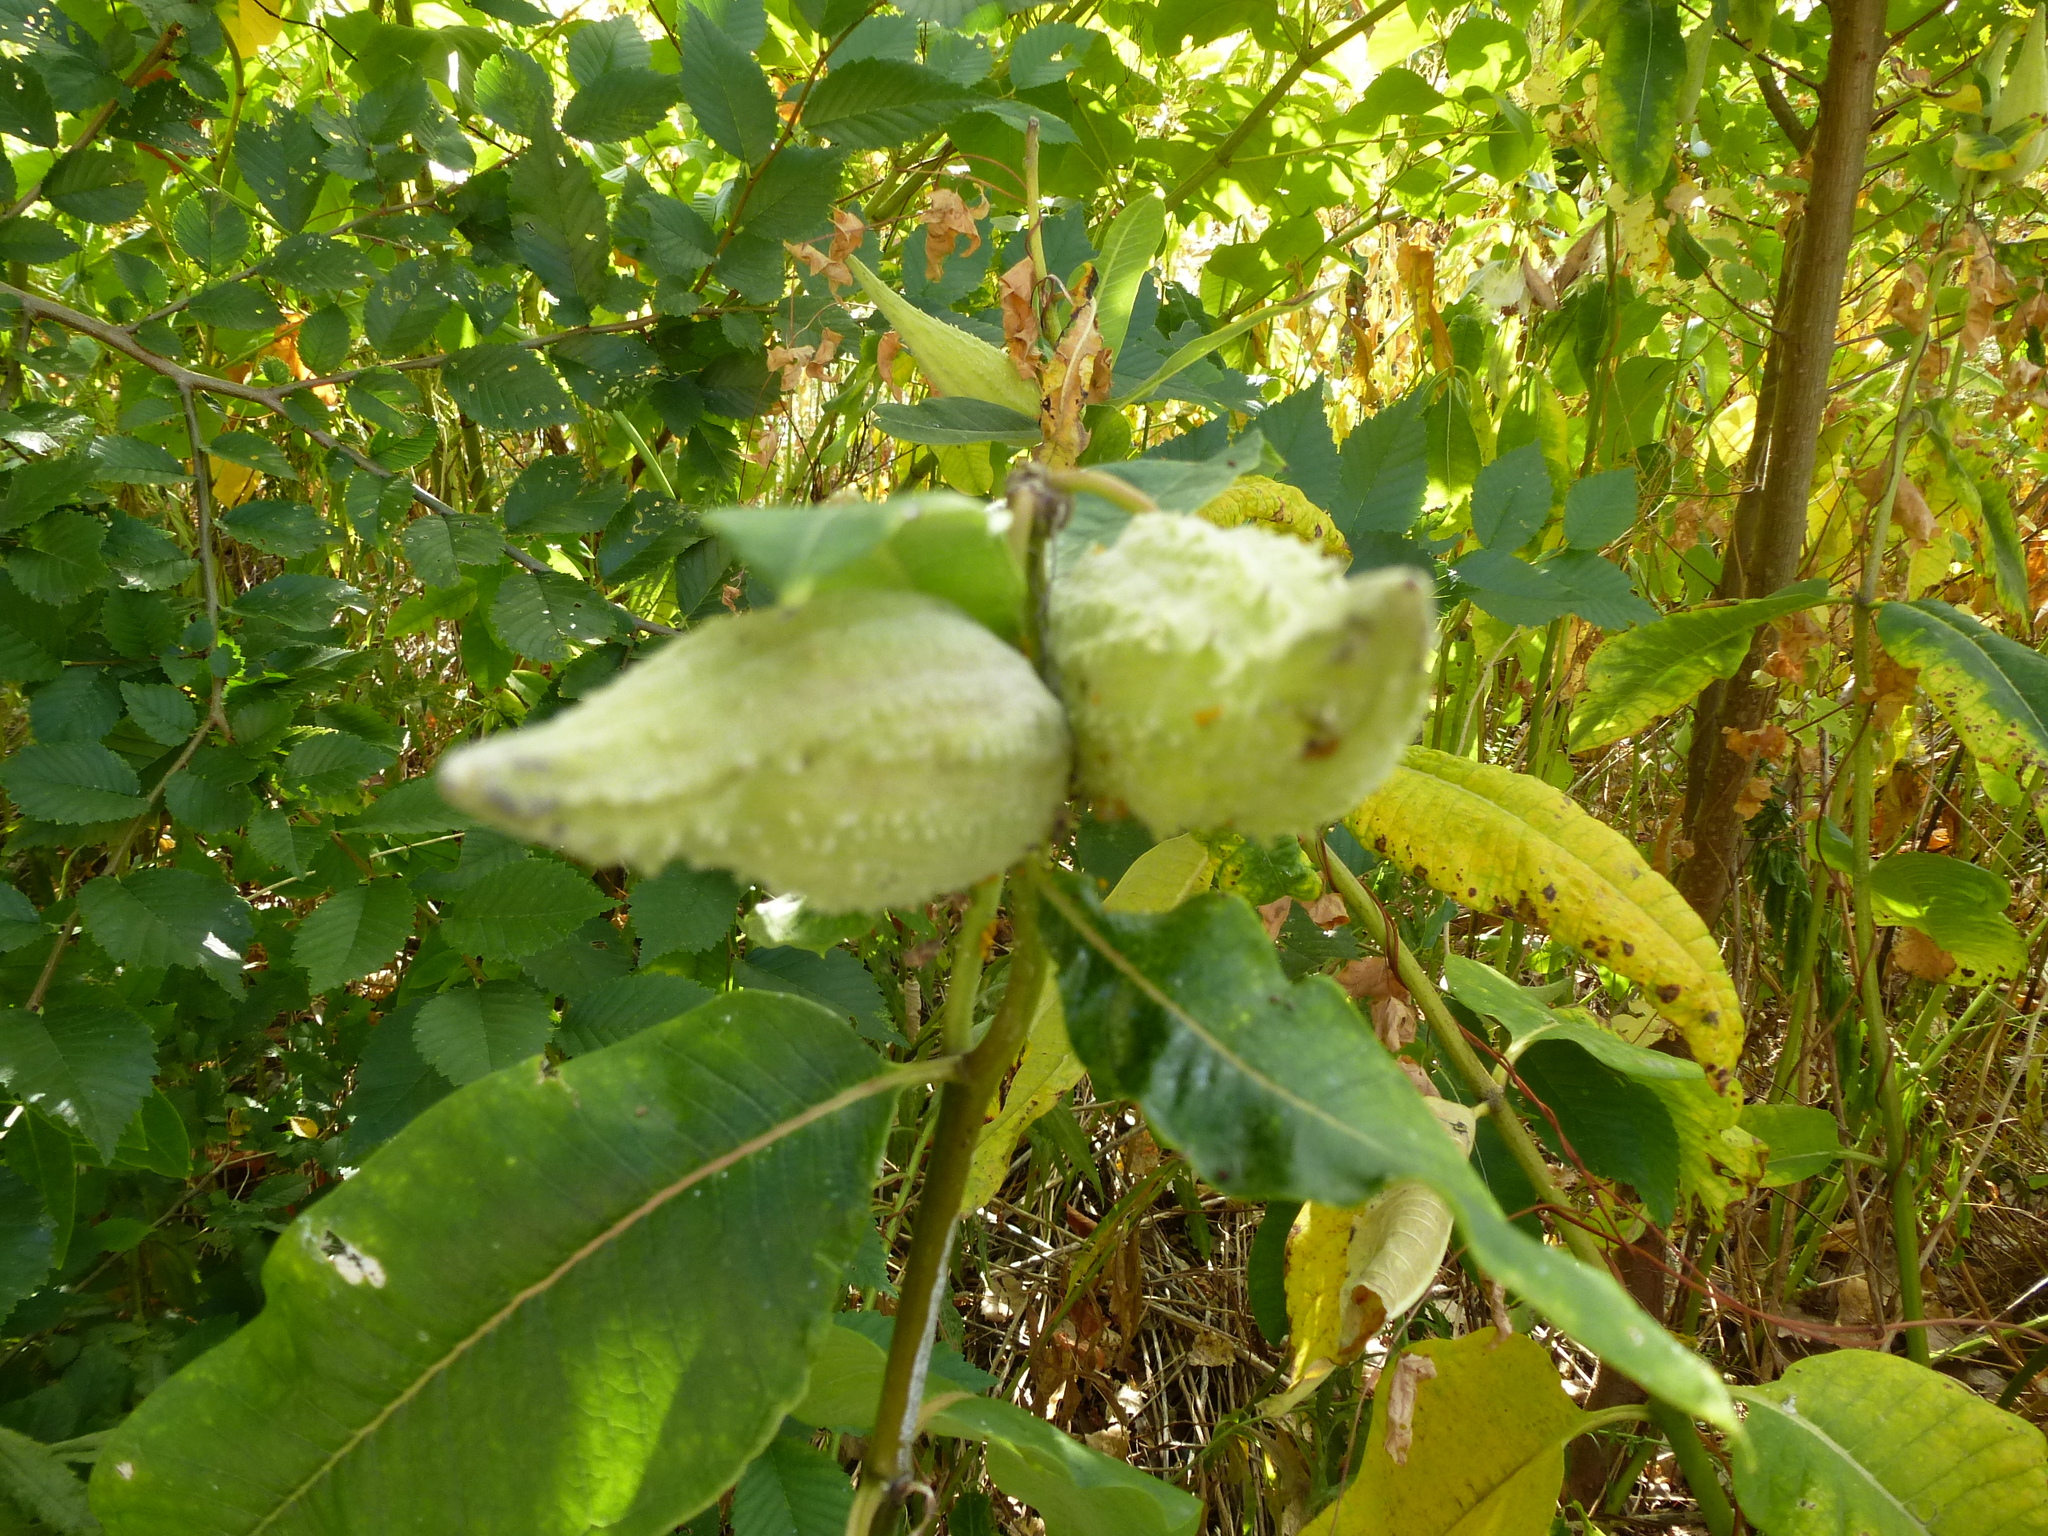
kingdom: Plantae
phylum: Tracheophyta
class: Magnoliopsida
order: Gentianales
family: Apocynaceae
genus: Asclepias
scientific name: Asclepias syriaca
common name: Common milkweed
